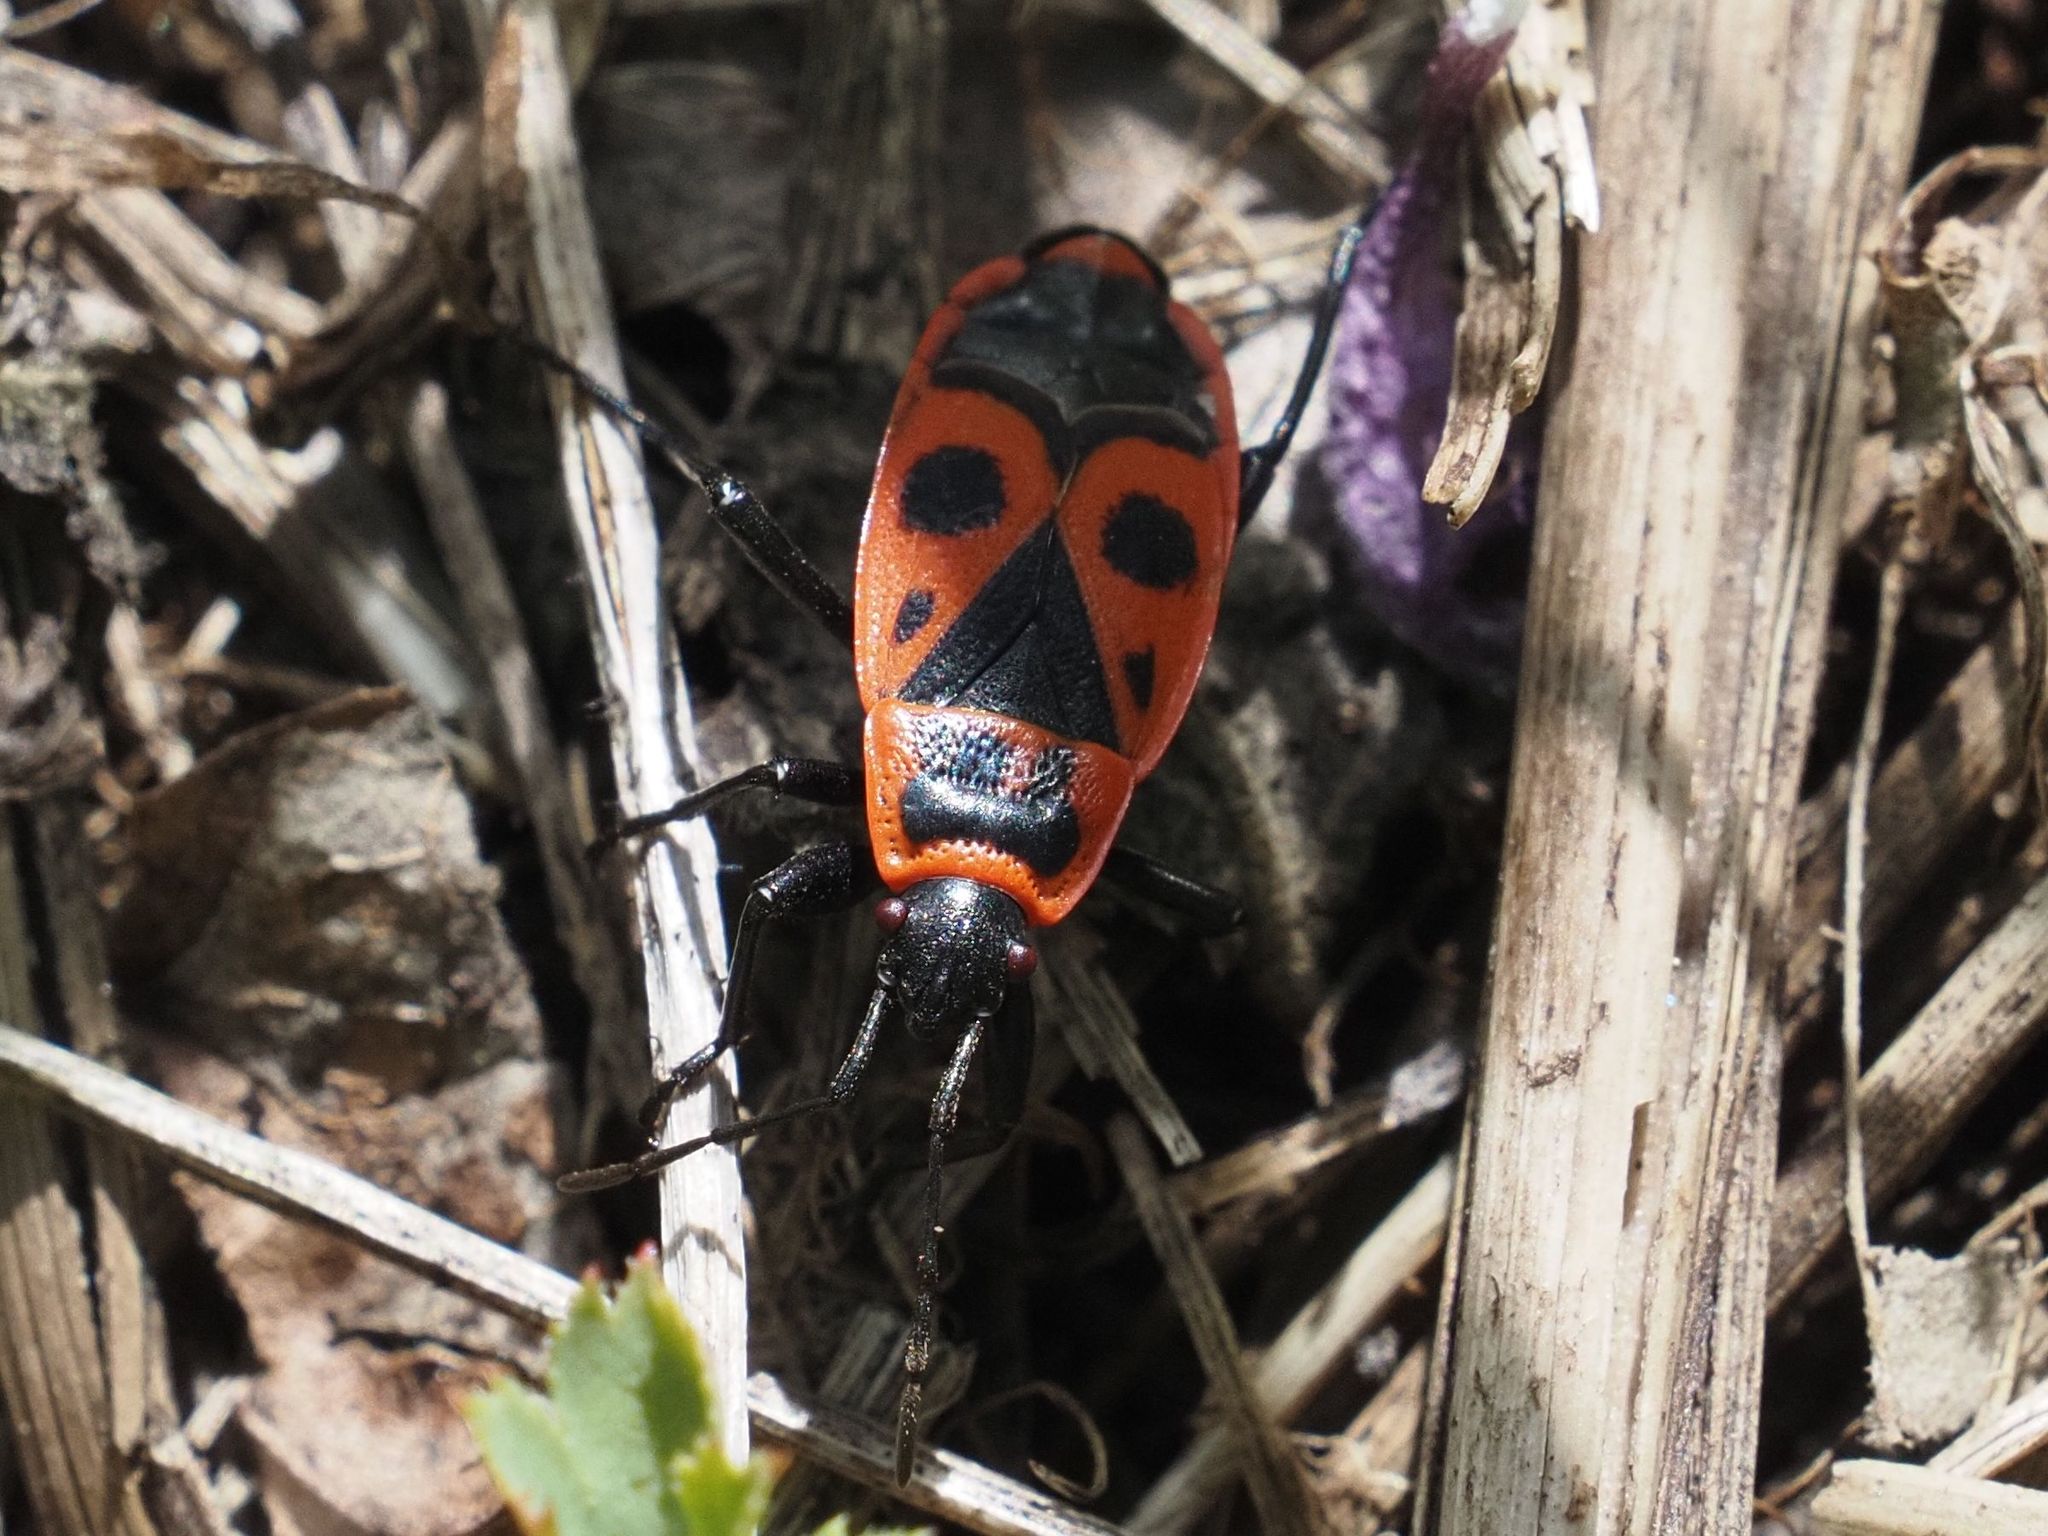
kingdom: Animalia
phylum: Arthropoda
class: Insecta
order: Hemiptera
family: Pyrrhocoridae
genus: Pyrrhocoris
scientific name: Pyrrhocoris apterus
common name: Firebug
